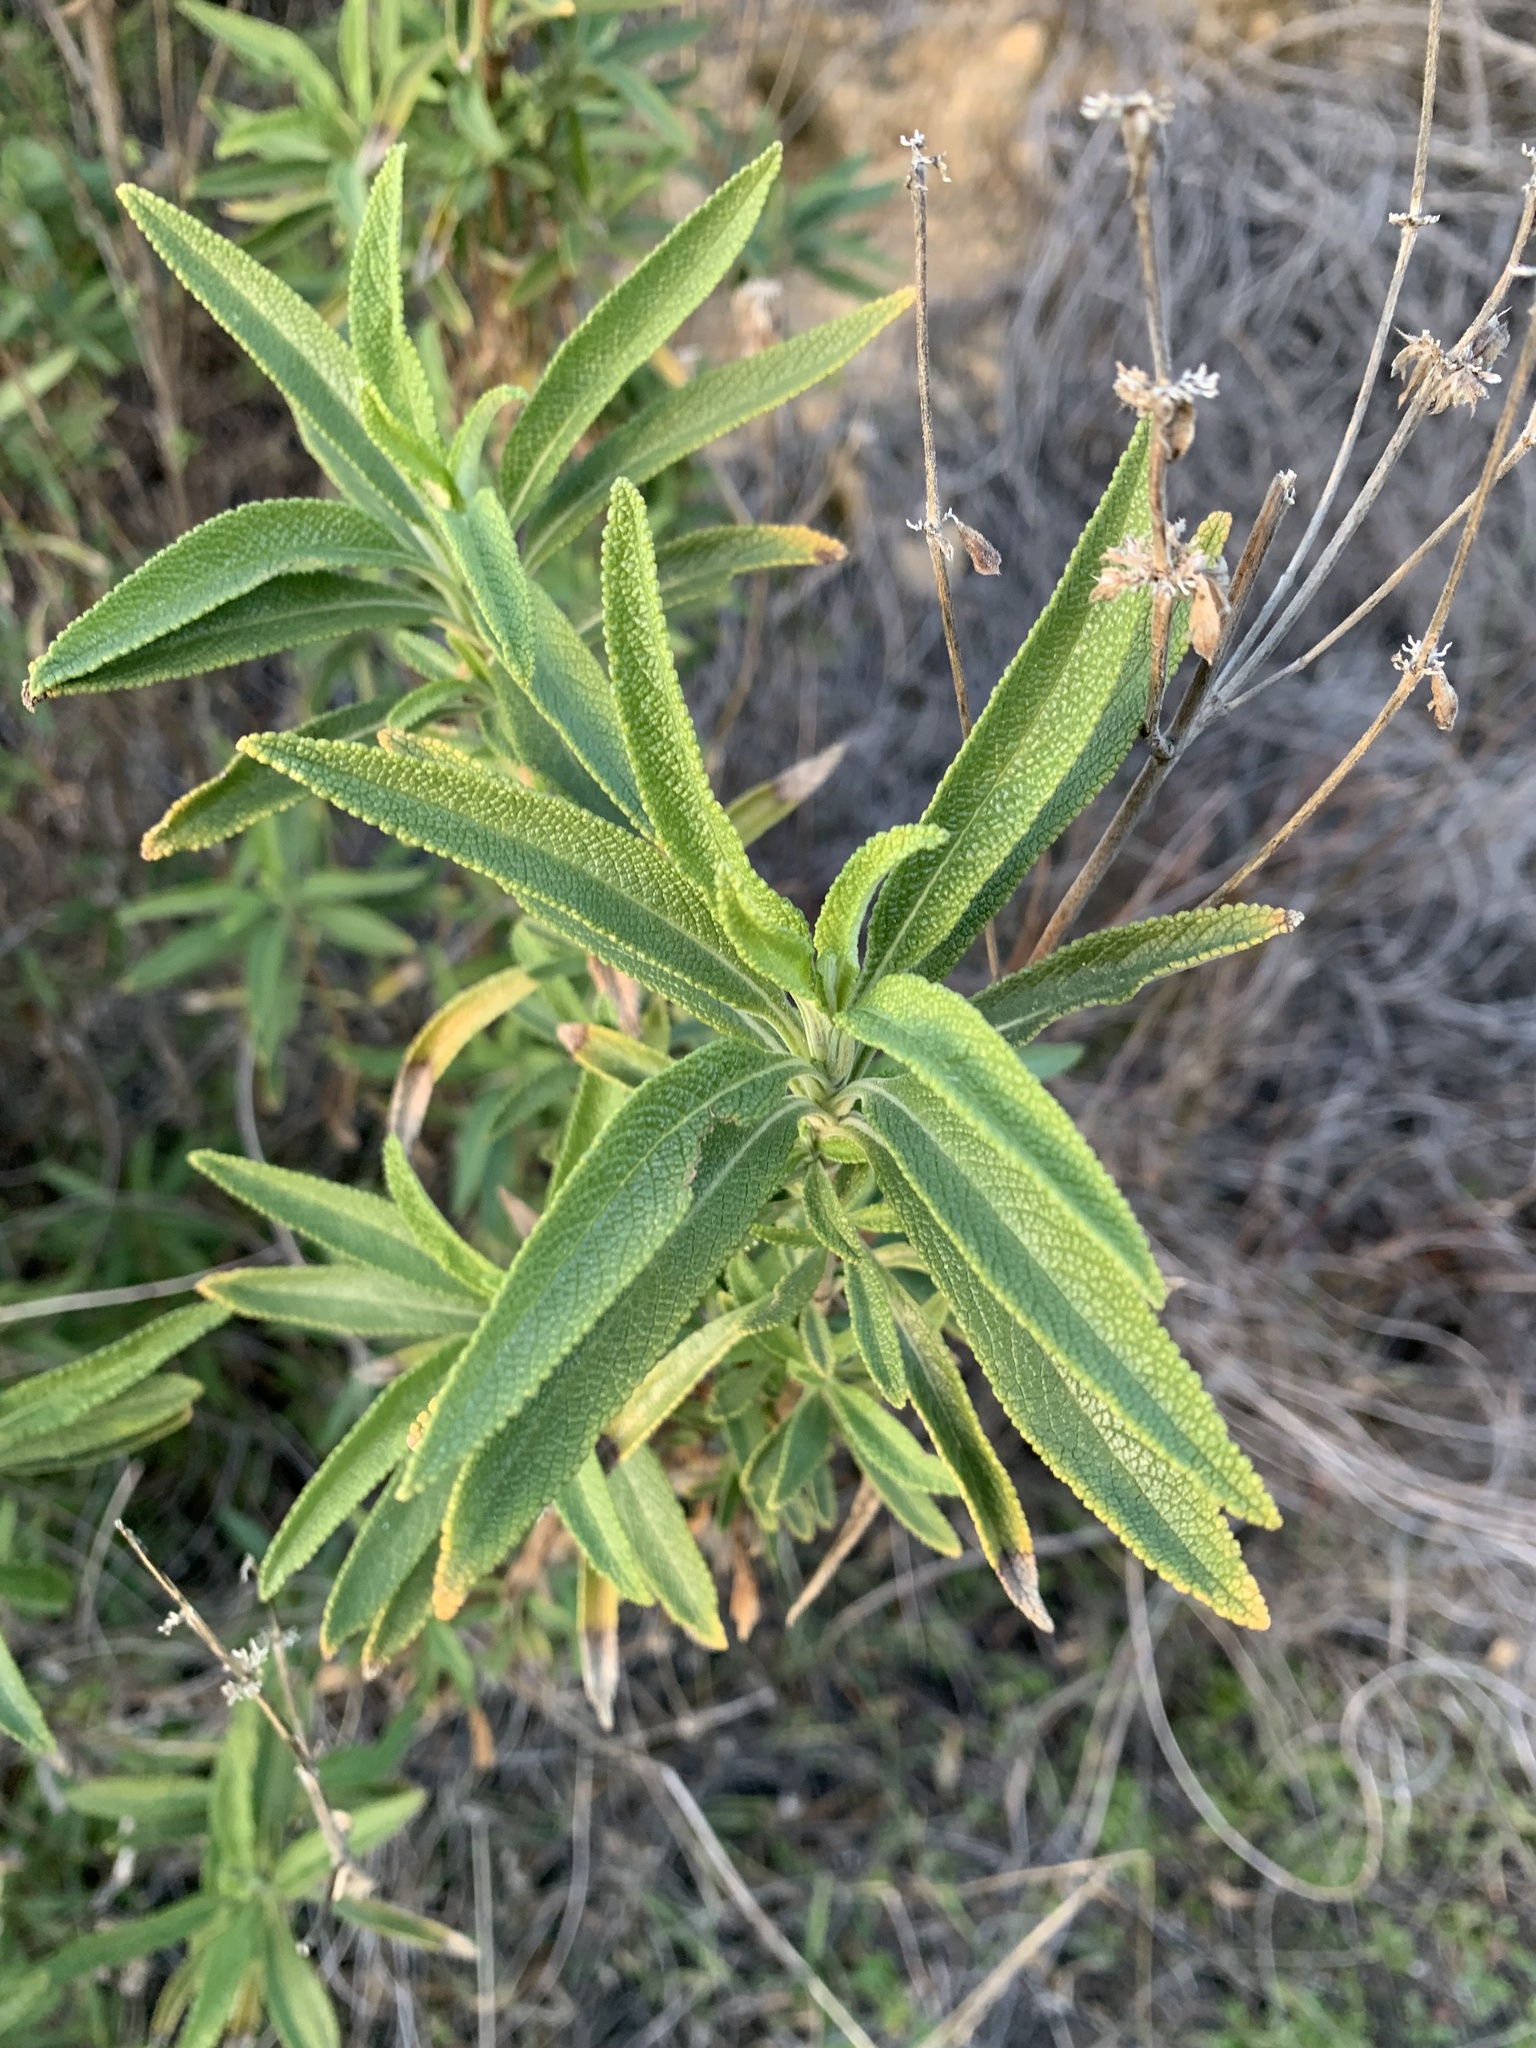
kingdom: Plantae
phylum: Tracheophyta
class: Magnoliopsida
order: Lamiales
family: Lamiaceae
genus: Salvia
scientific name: Salvia mellifera
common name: Black sage
